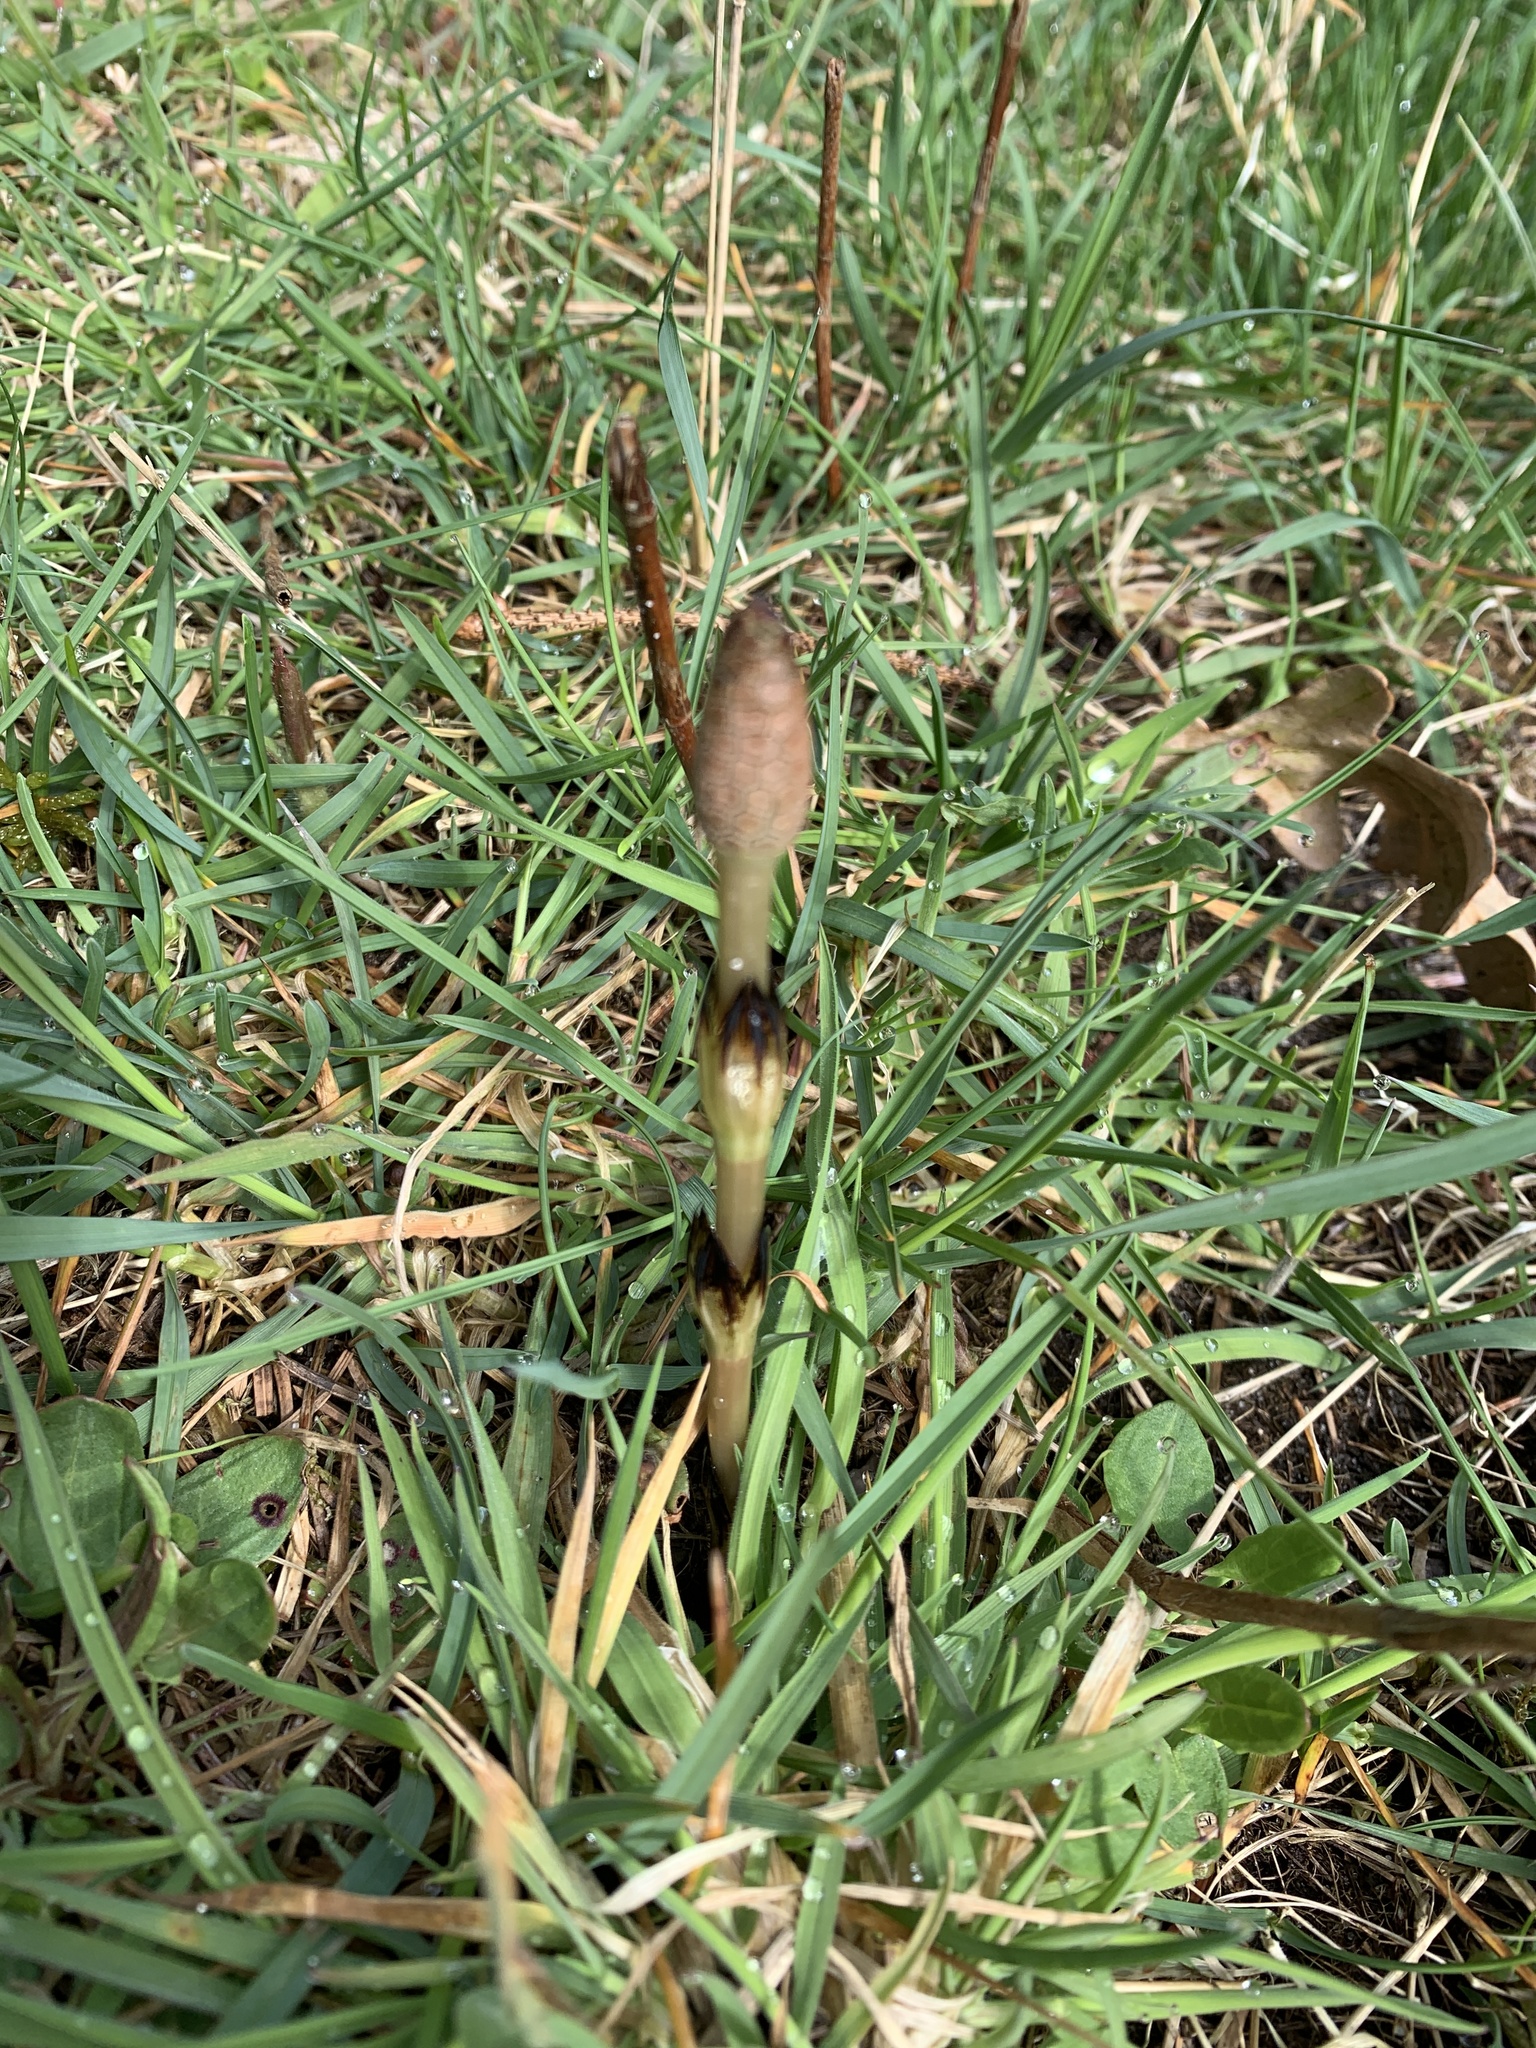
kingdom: Plantae
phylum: Tracheophyta
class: Polypodiopsida
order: Equisetales
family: Equisetaceae
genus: Equisetum
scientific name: Equisetum arvense
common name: Field horsetail
